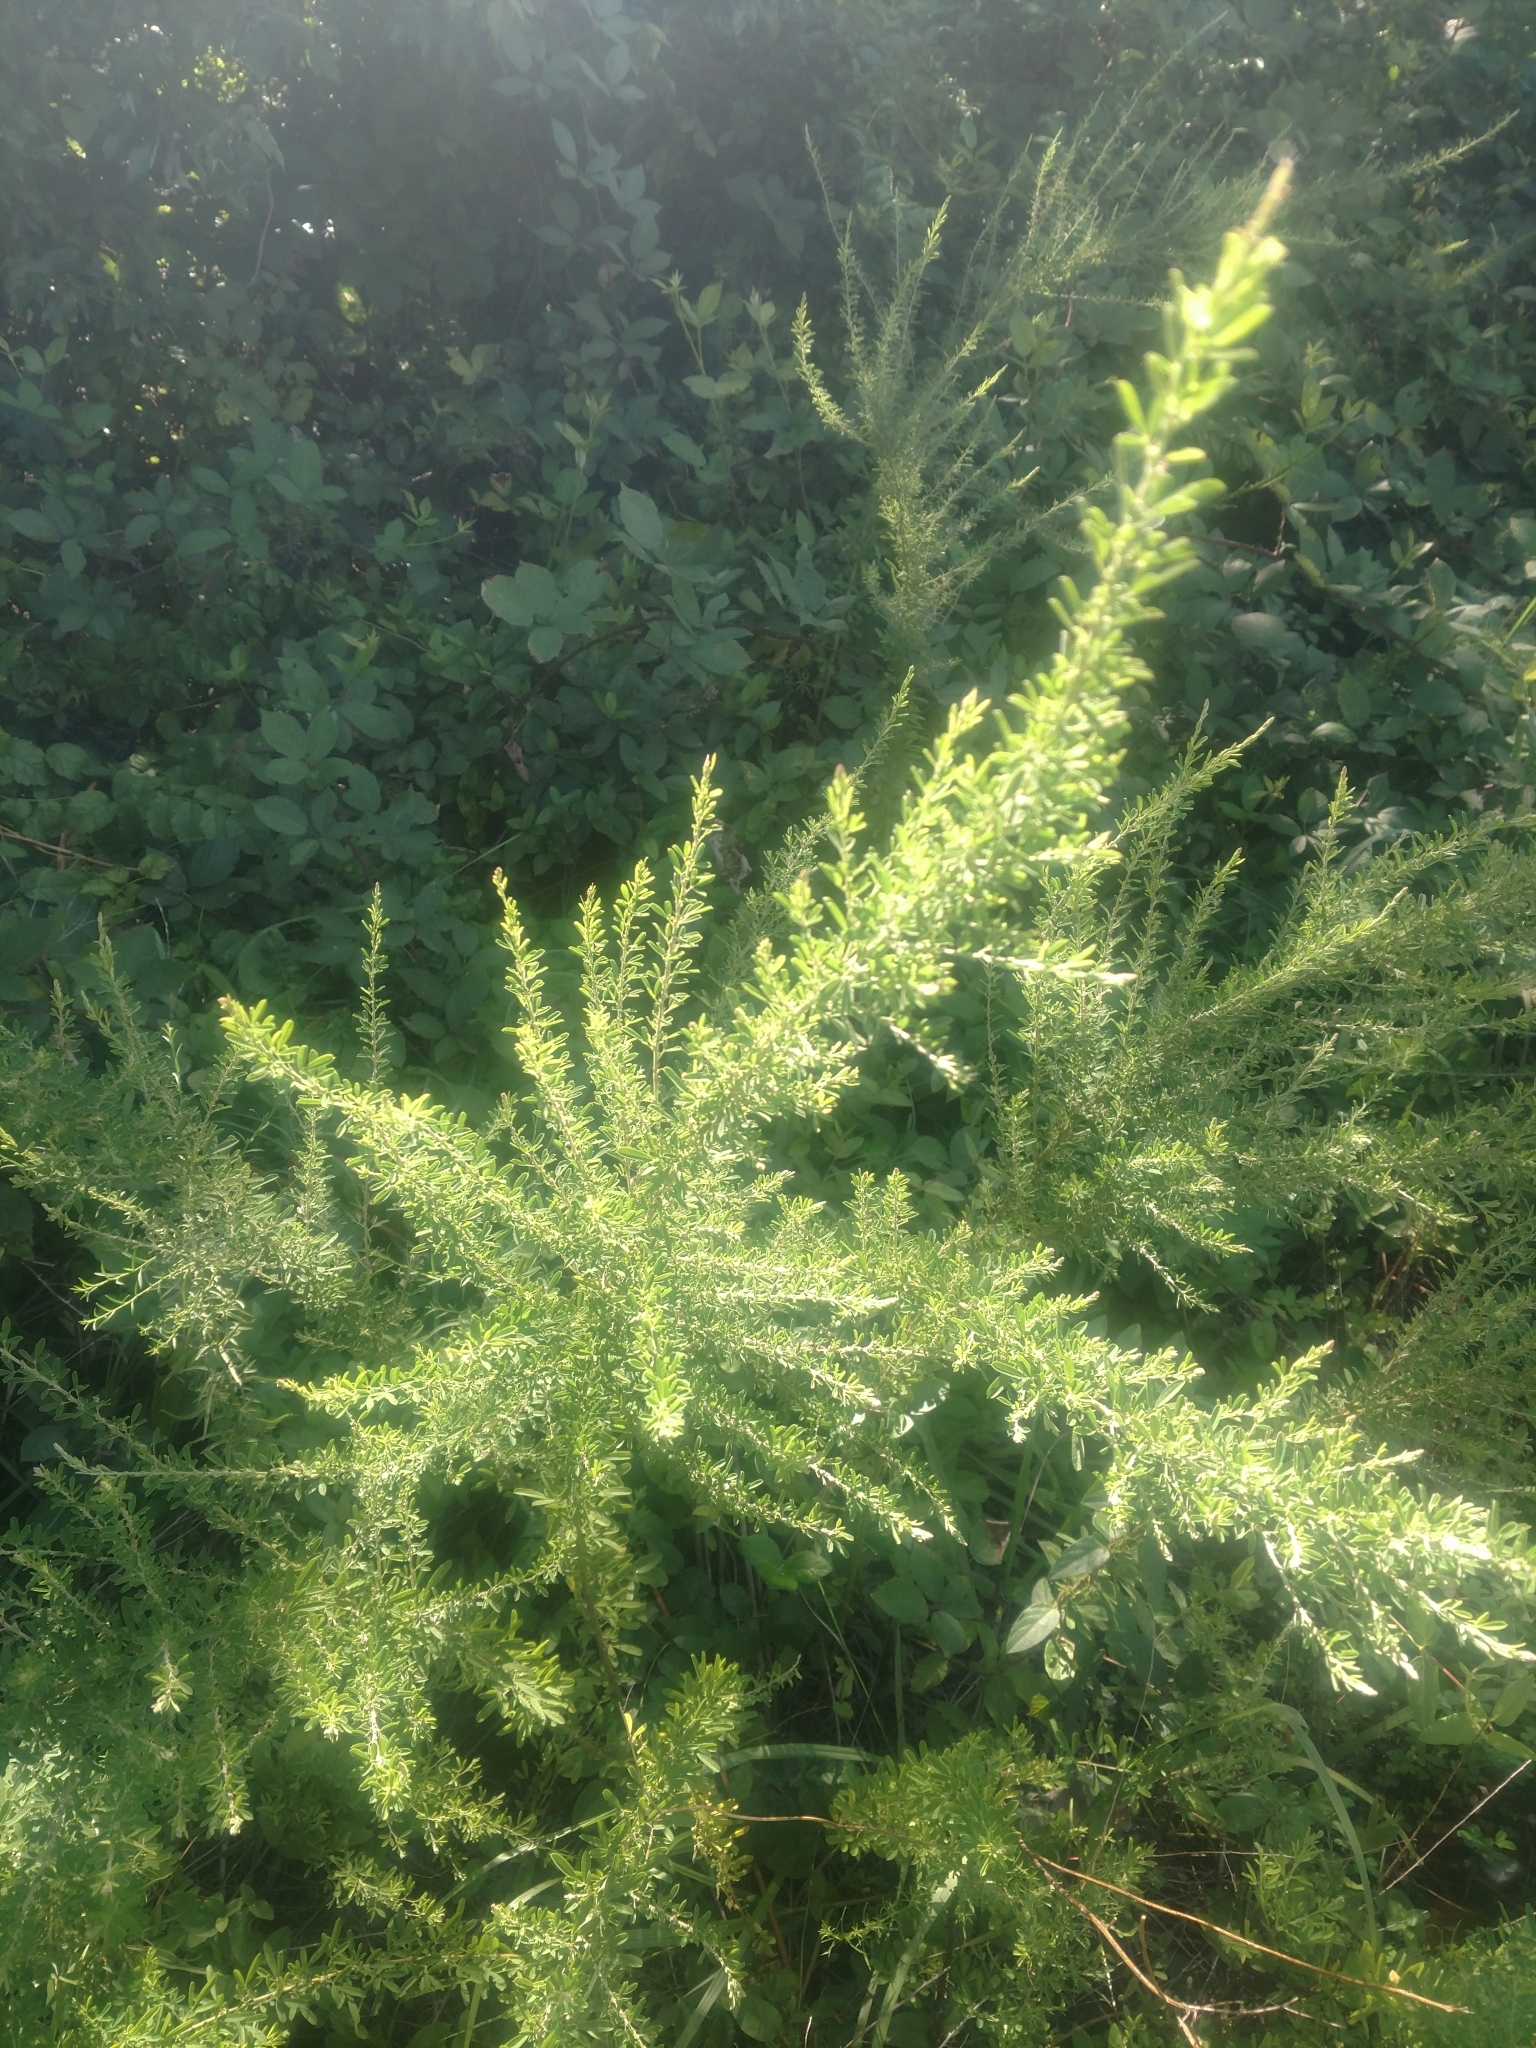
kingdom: Plantae
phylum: Tracheophyta
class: Magnoliopsida
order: Fabales
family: Fabaceae
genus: Lespedeza
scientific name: Lespedeza cuneata
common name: Chinese bush-clover
